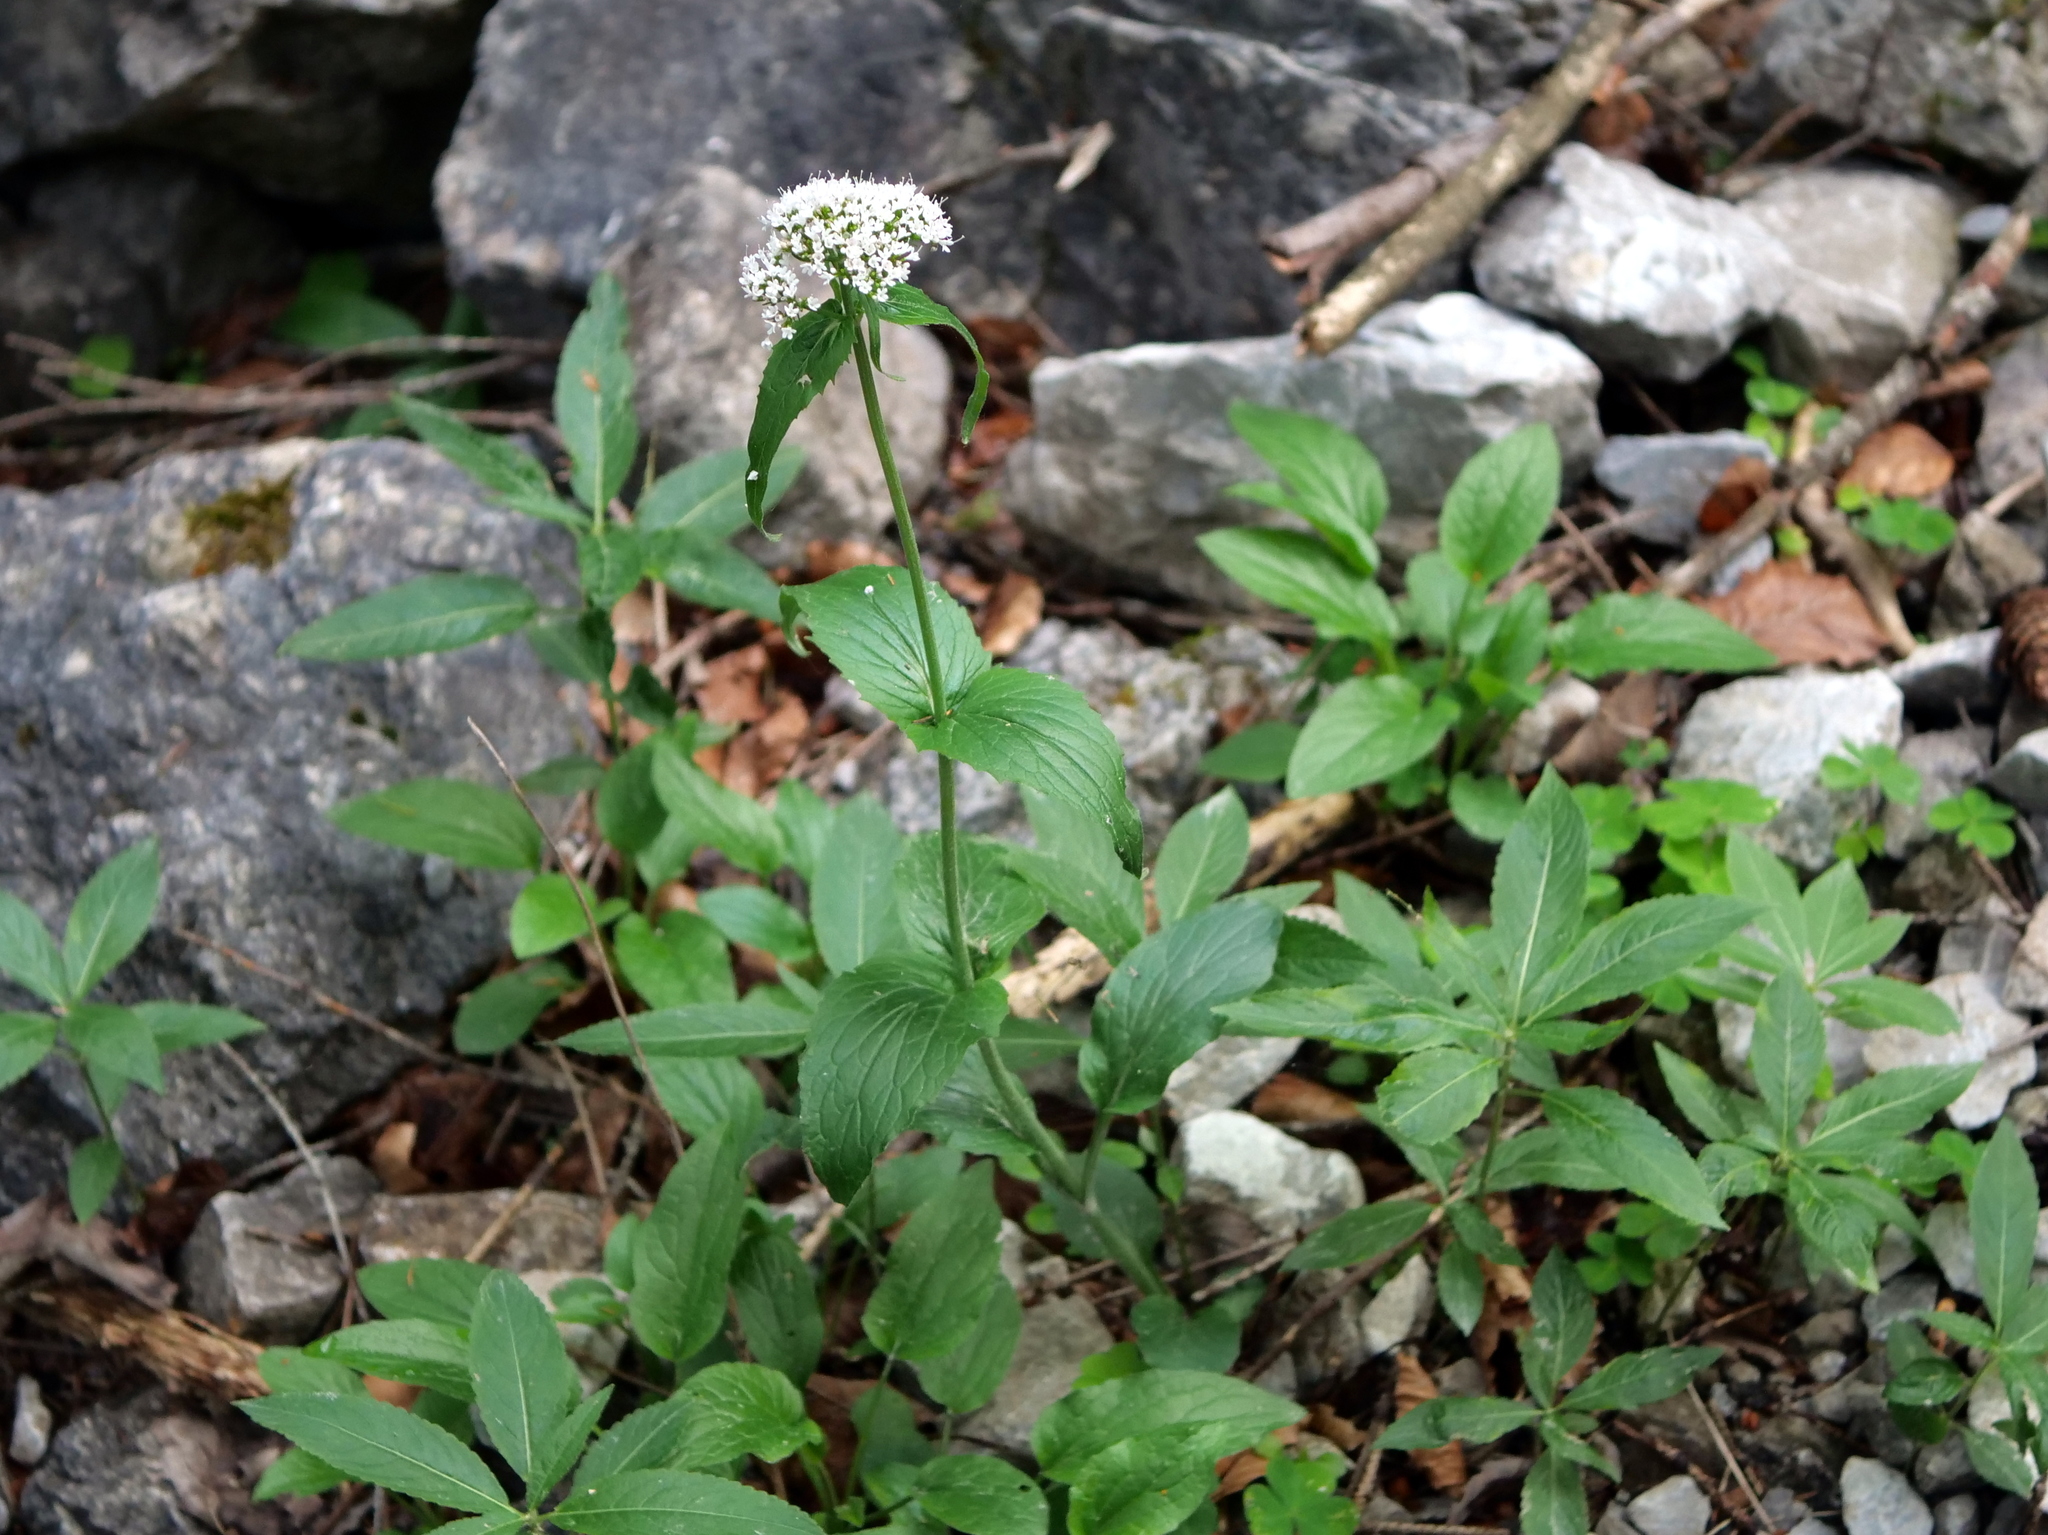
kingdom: Plantae
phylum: Tracheophyta
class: Magnoliopsida
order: Dipsacales
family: Caprifoliaceae
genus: Valeriana
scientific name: Valeriana montana
